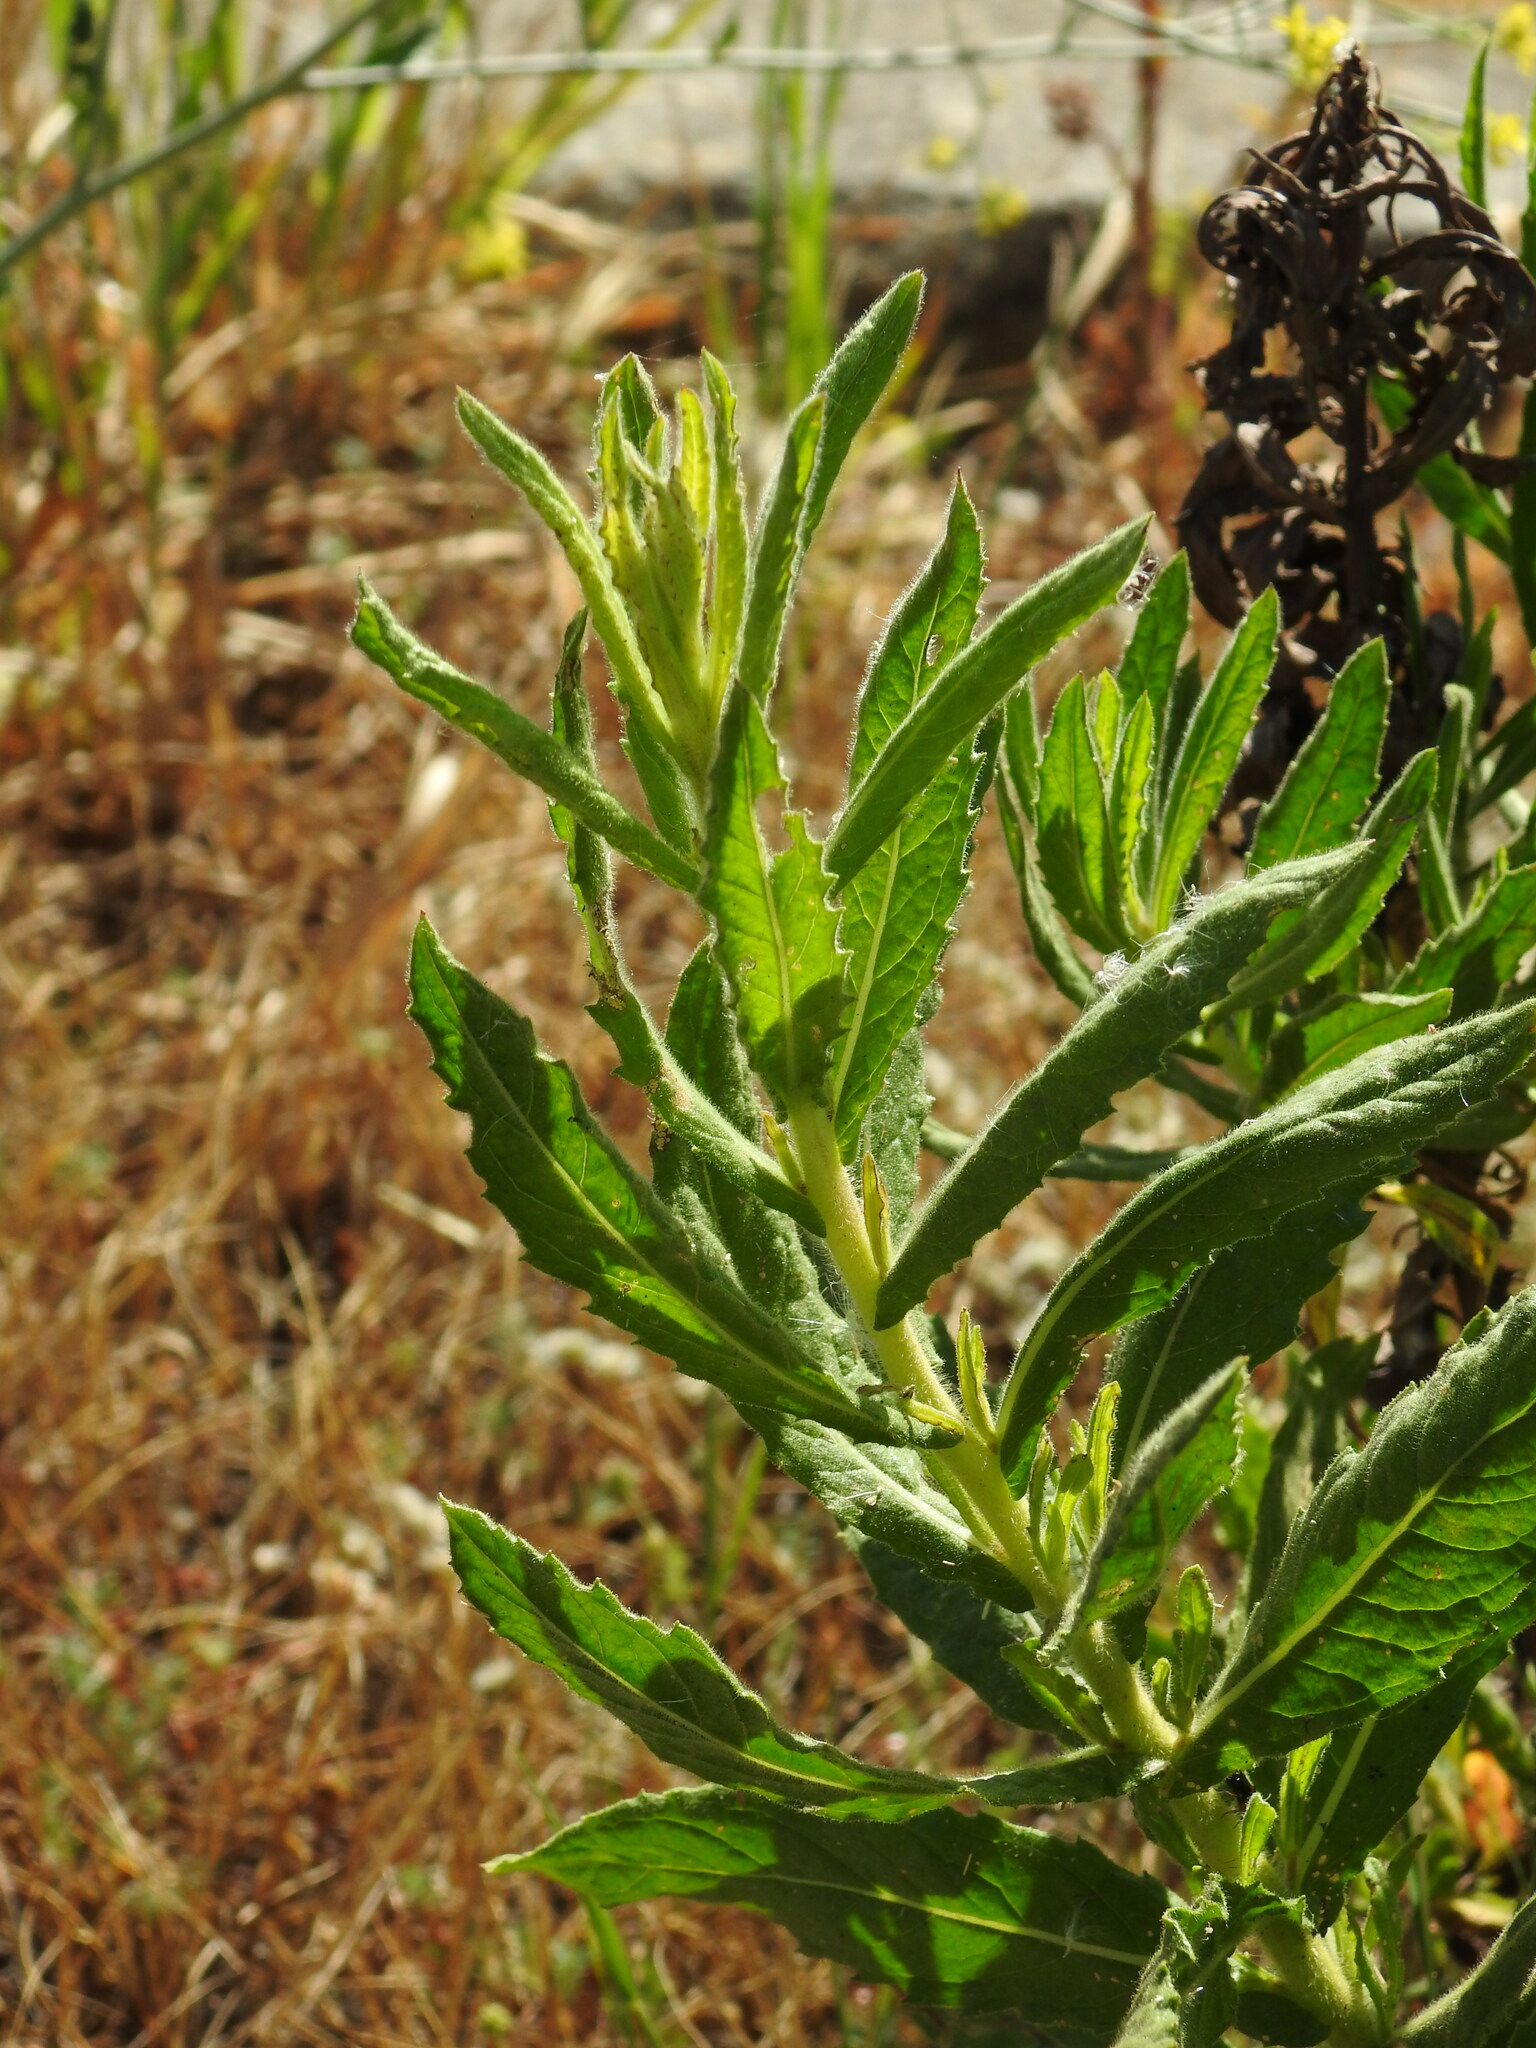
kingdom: Plantae
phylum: Tracheophyta
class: Magnoliopsida
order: Asterales
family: Asteraceae
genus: Dittrichia
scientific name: Dittrichia viscosa
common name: Woody fleabane
